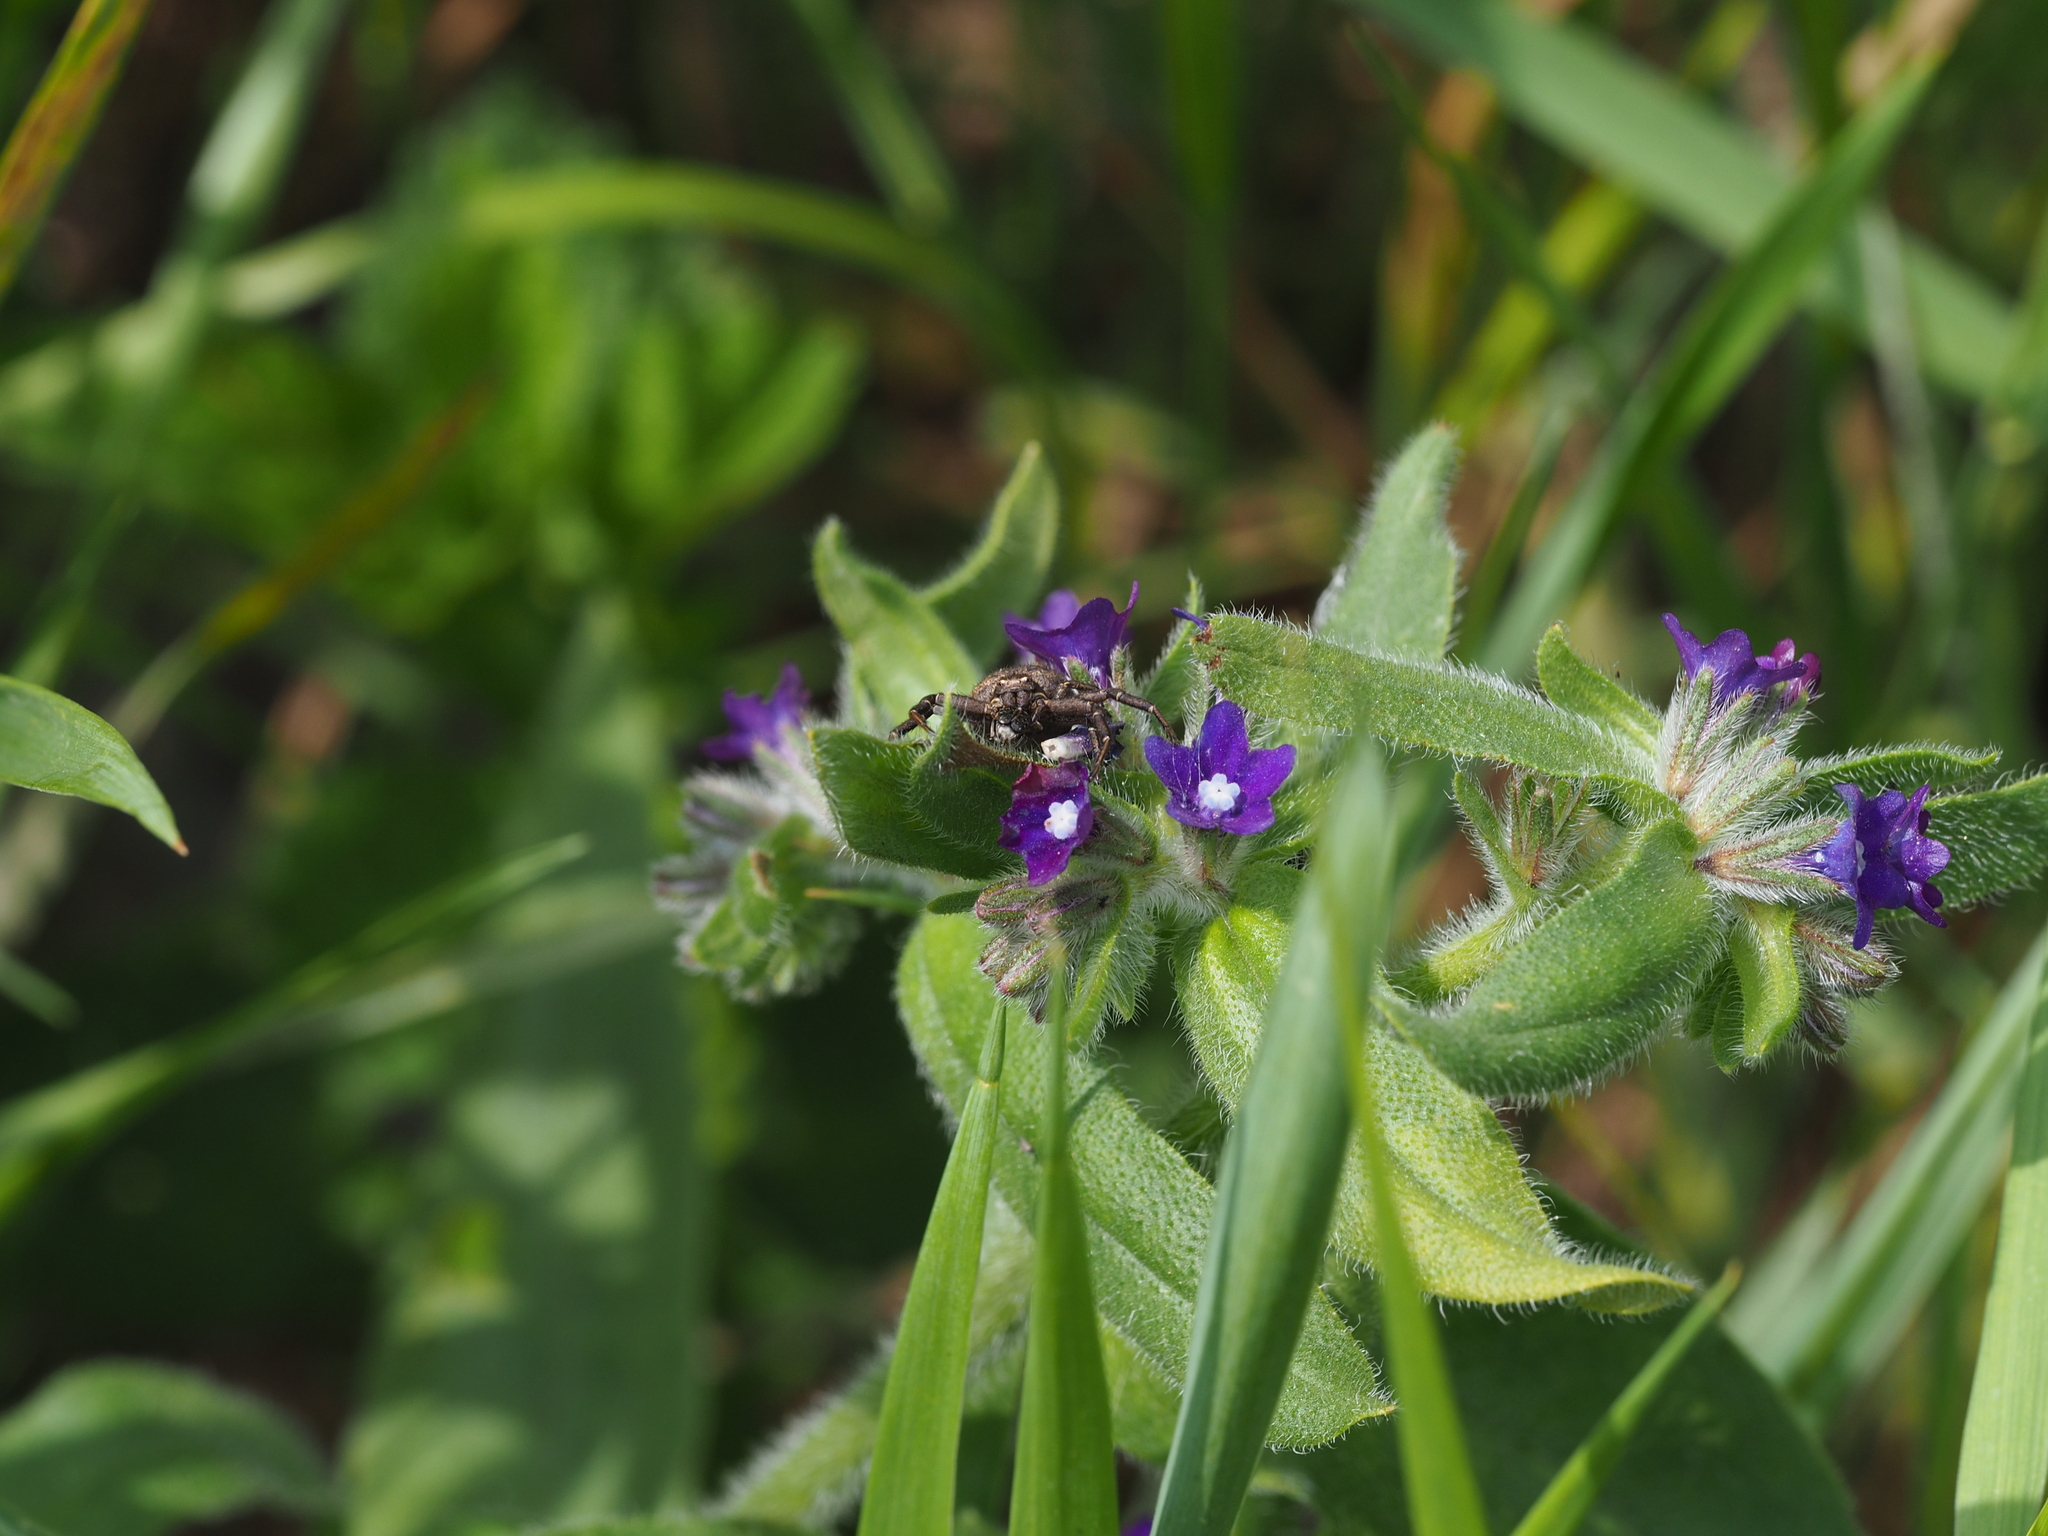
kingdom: Plantae
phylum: Tracheophyta
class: Magnoliopsida
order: Boraginales
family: Boraginaceae
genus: Anchusa
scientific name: Anchusa officinalis
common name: Alkanet
